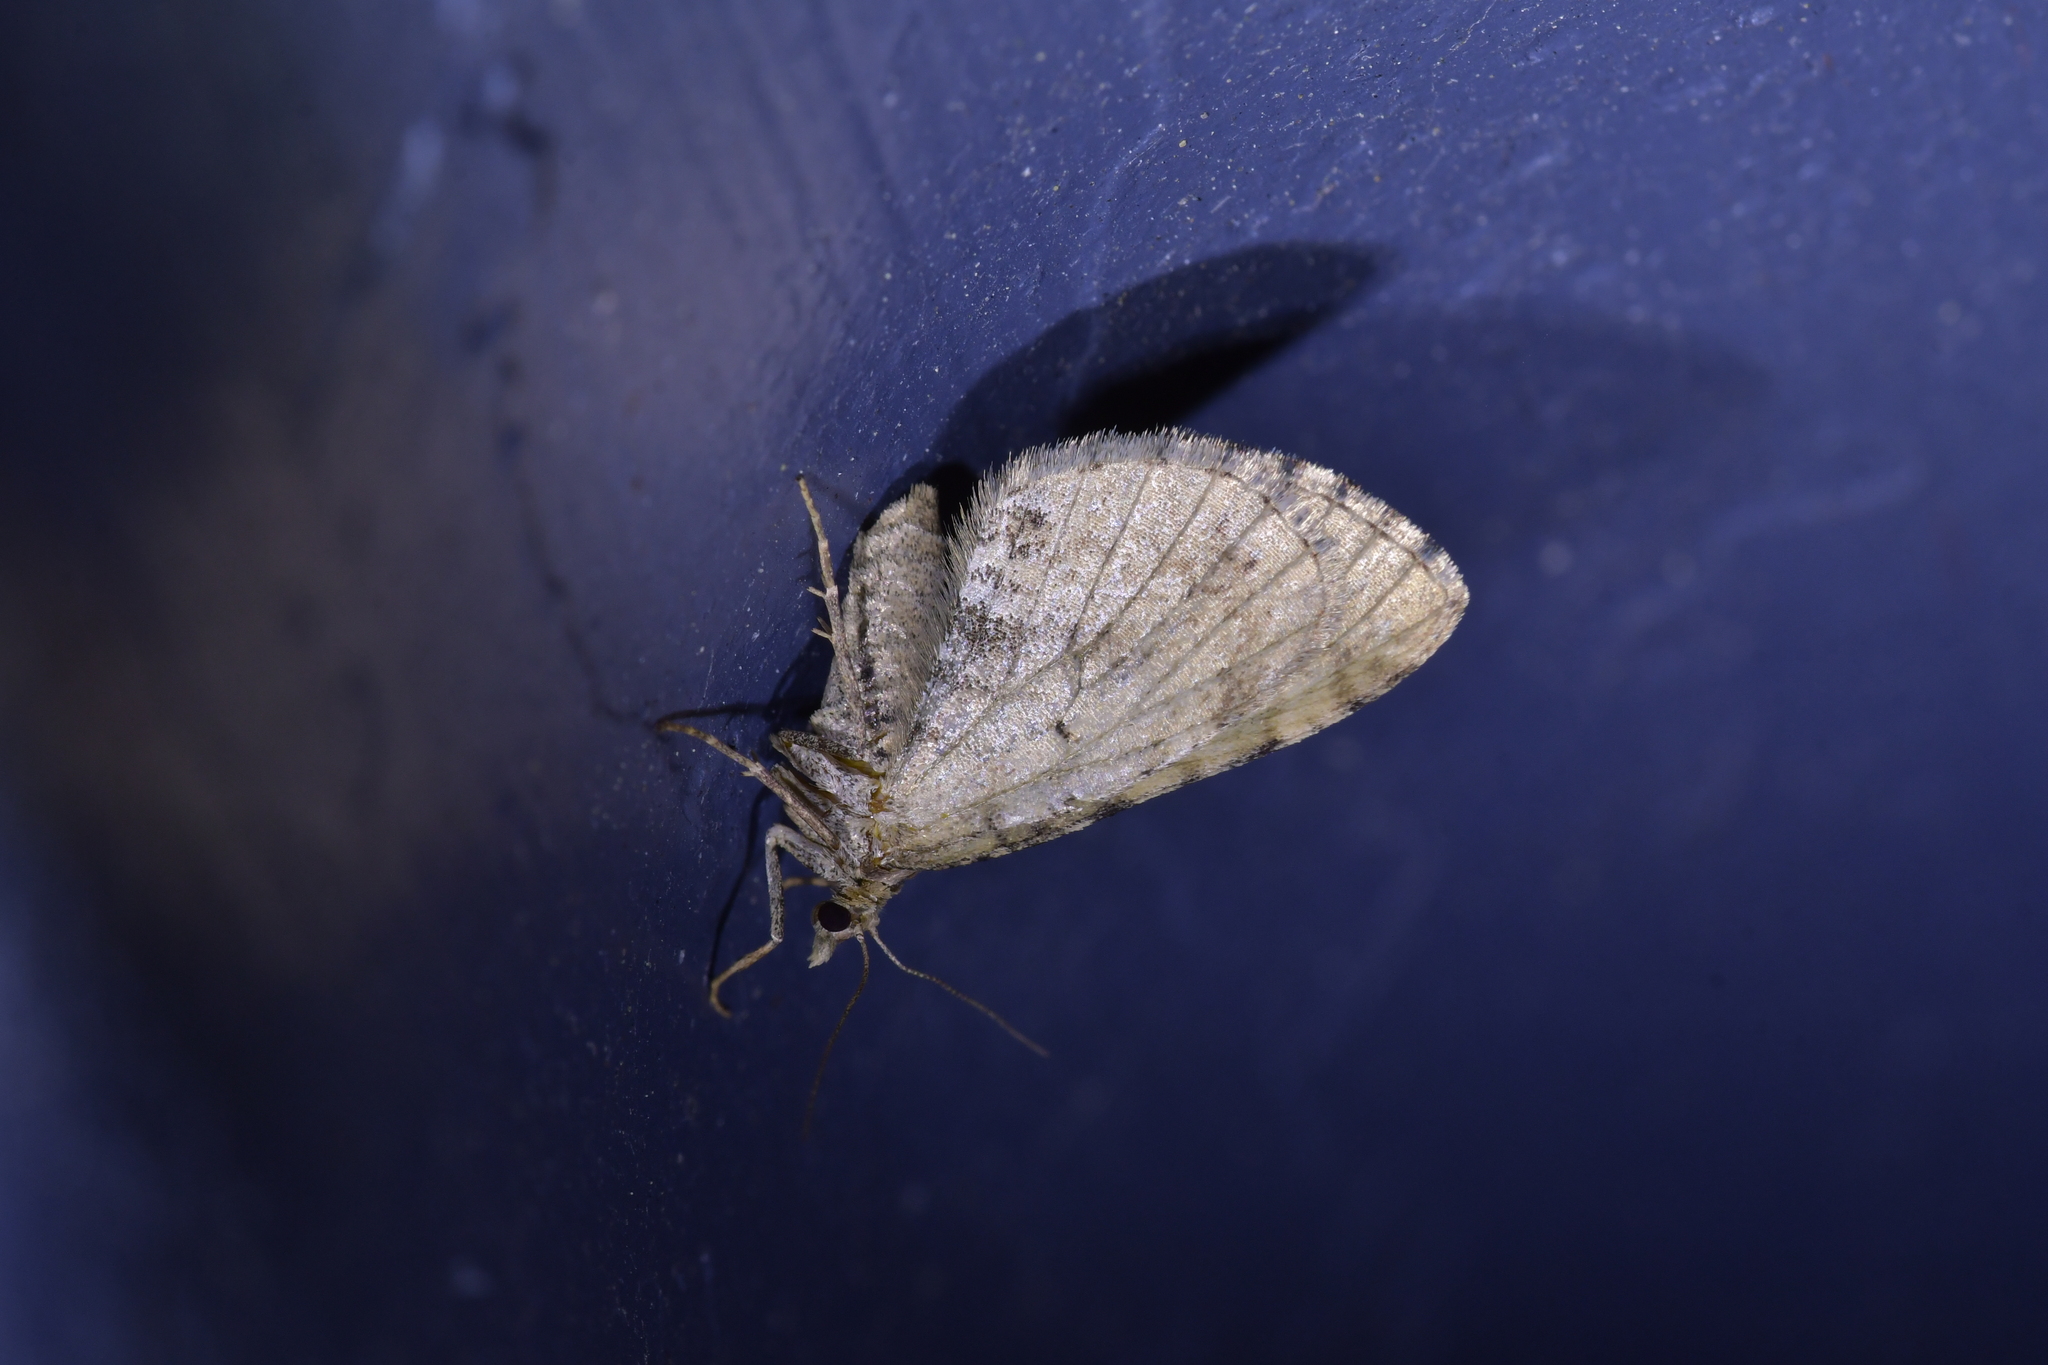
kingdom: Animalia
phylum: Arthropoda
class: Insecta
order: Lepidoptera
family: Geometridae
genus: Asaphodes
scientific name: Asaphodes aegrota
